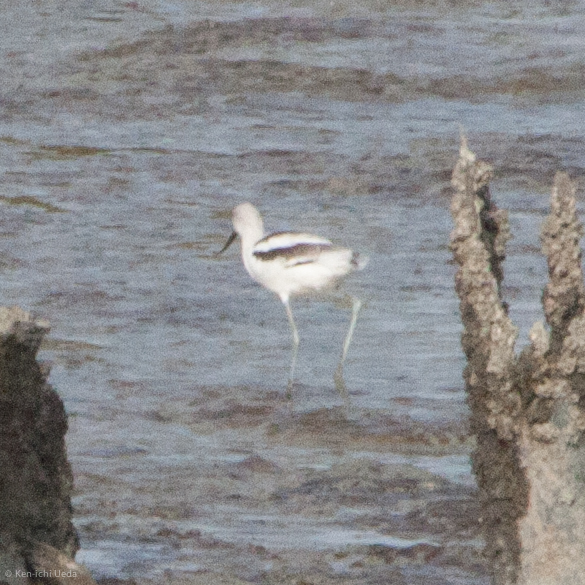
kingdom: Animalia
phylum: Chordata
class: Aves
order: Charadriiformes
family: Recurvirostridae
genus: Recurvirostra
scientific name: Recurvirostra americana
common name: American avocet
